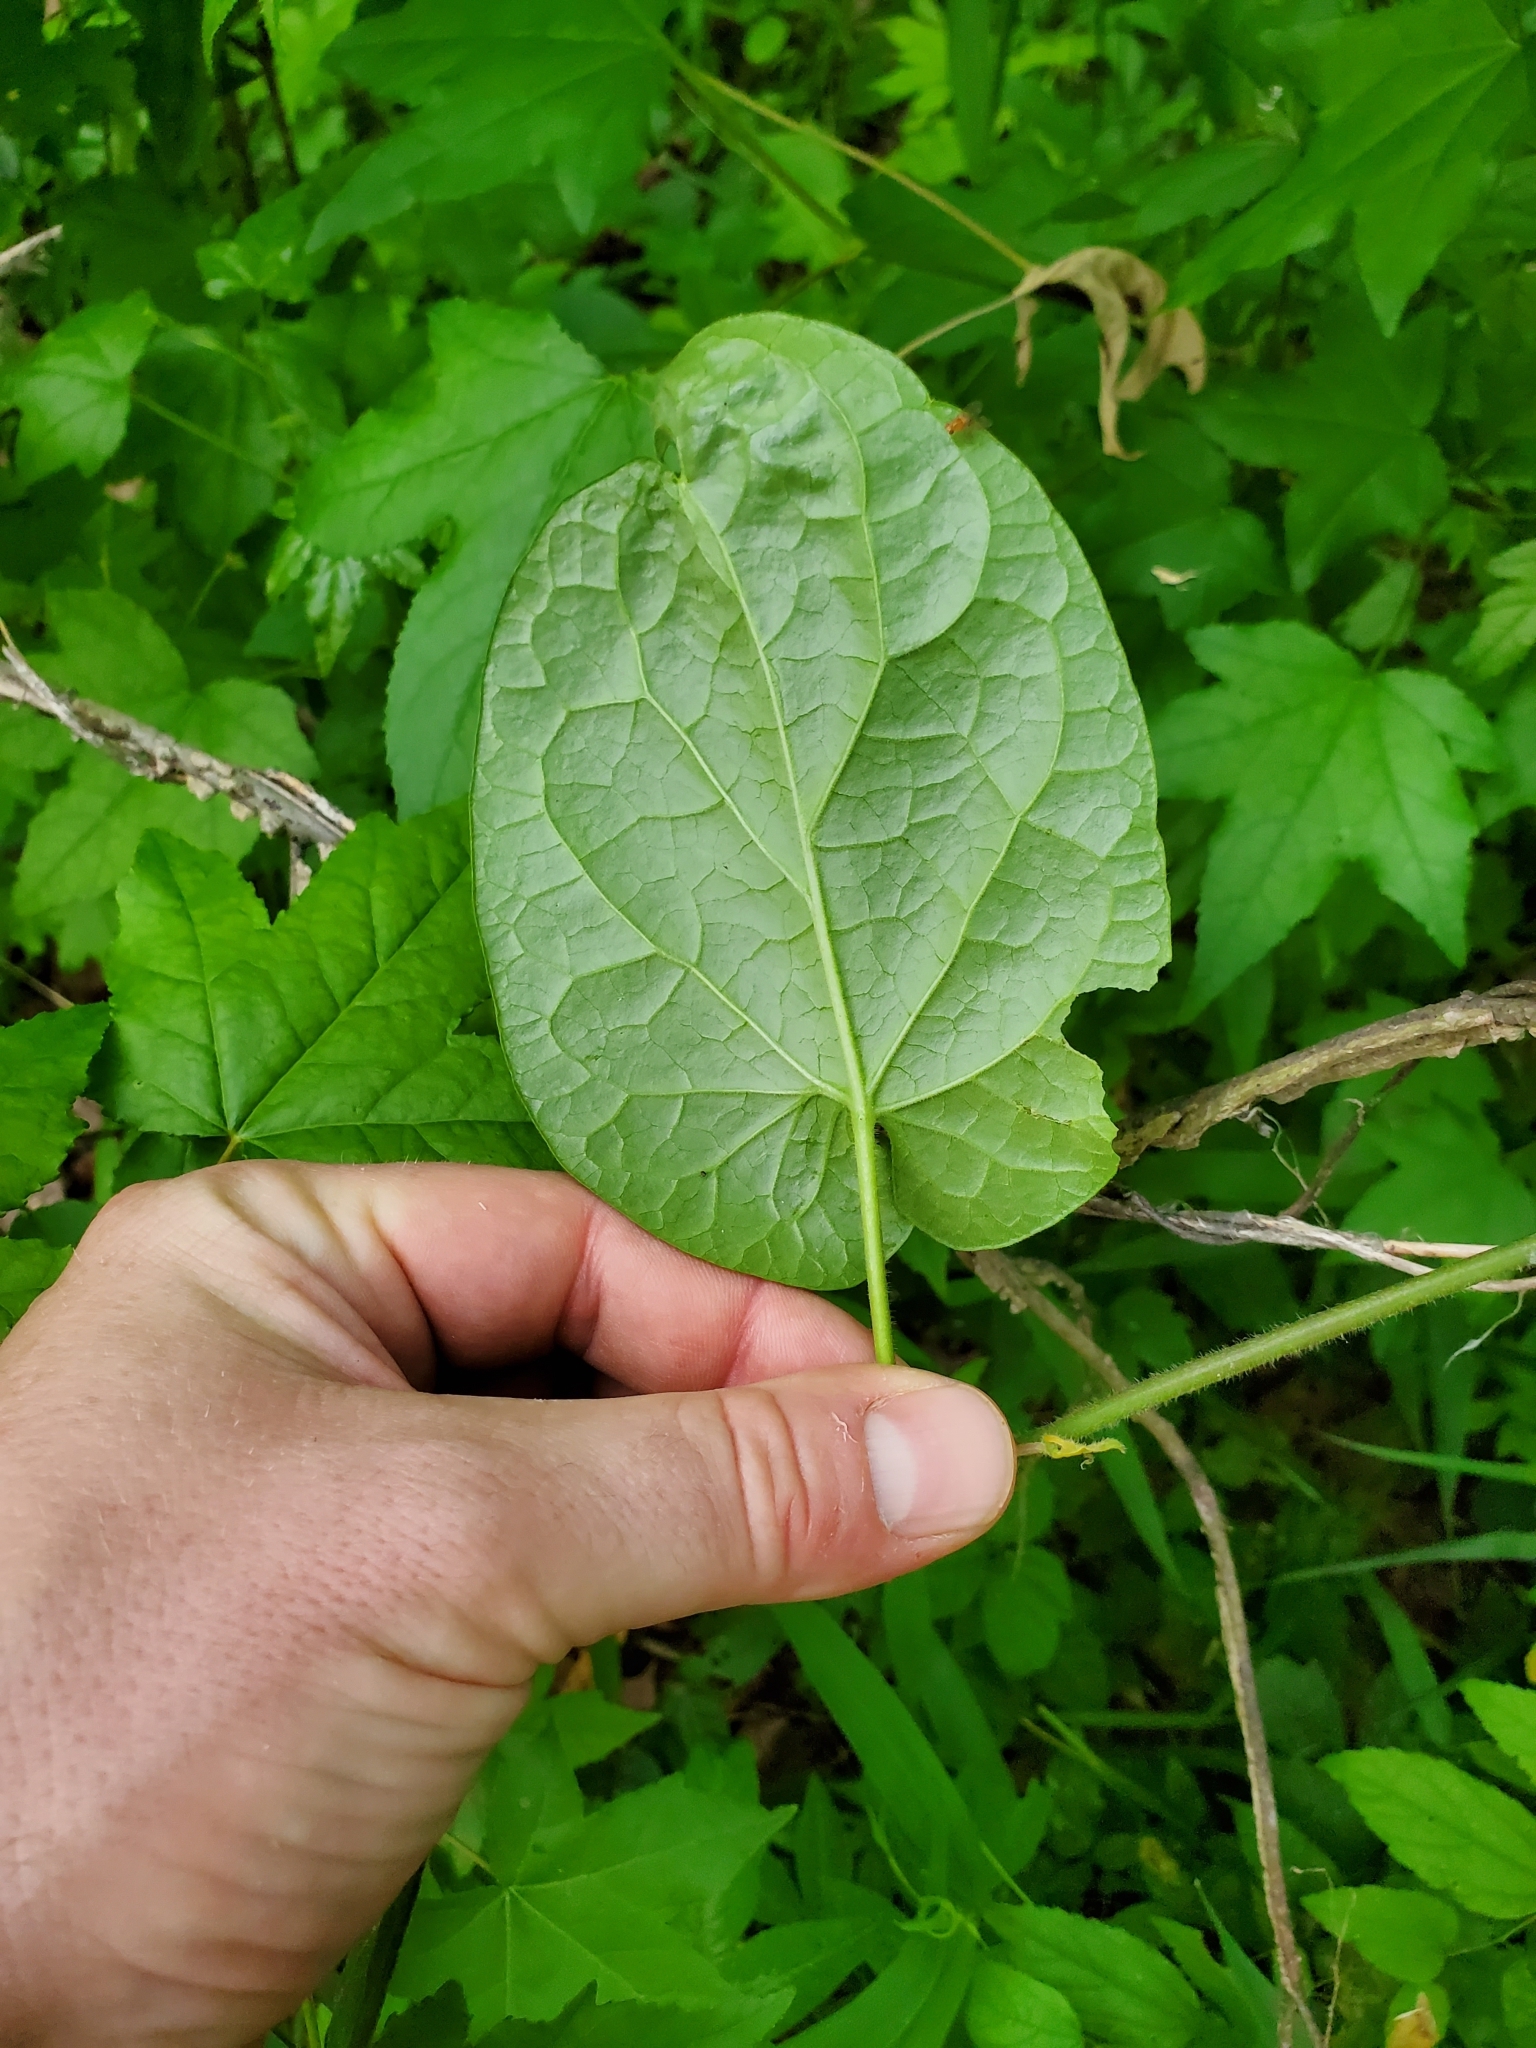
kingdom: Plantae
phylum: Tracheophyta
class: Magnoliopsida
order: Gentianales
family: Apocynaceae
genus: Gonolobus
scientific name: Gonolobus suberosus
